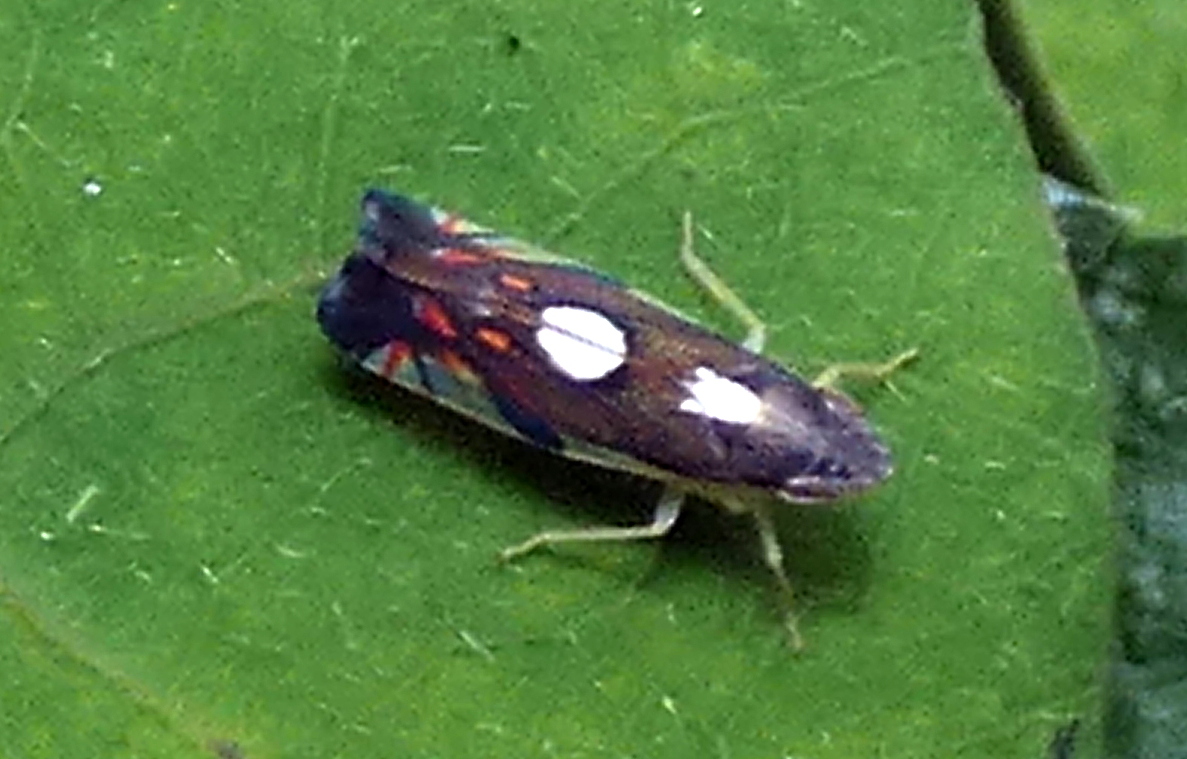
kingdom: Animalia
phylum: Arthropoda
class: Insecta
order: Hemiptera
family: Cicadellidae
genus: Diedrocephala
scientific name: Diedrocephala variegata
